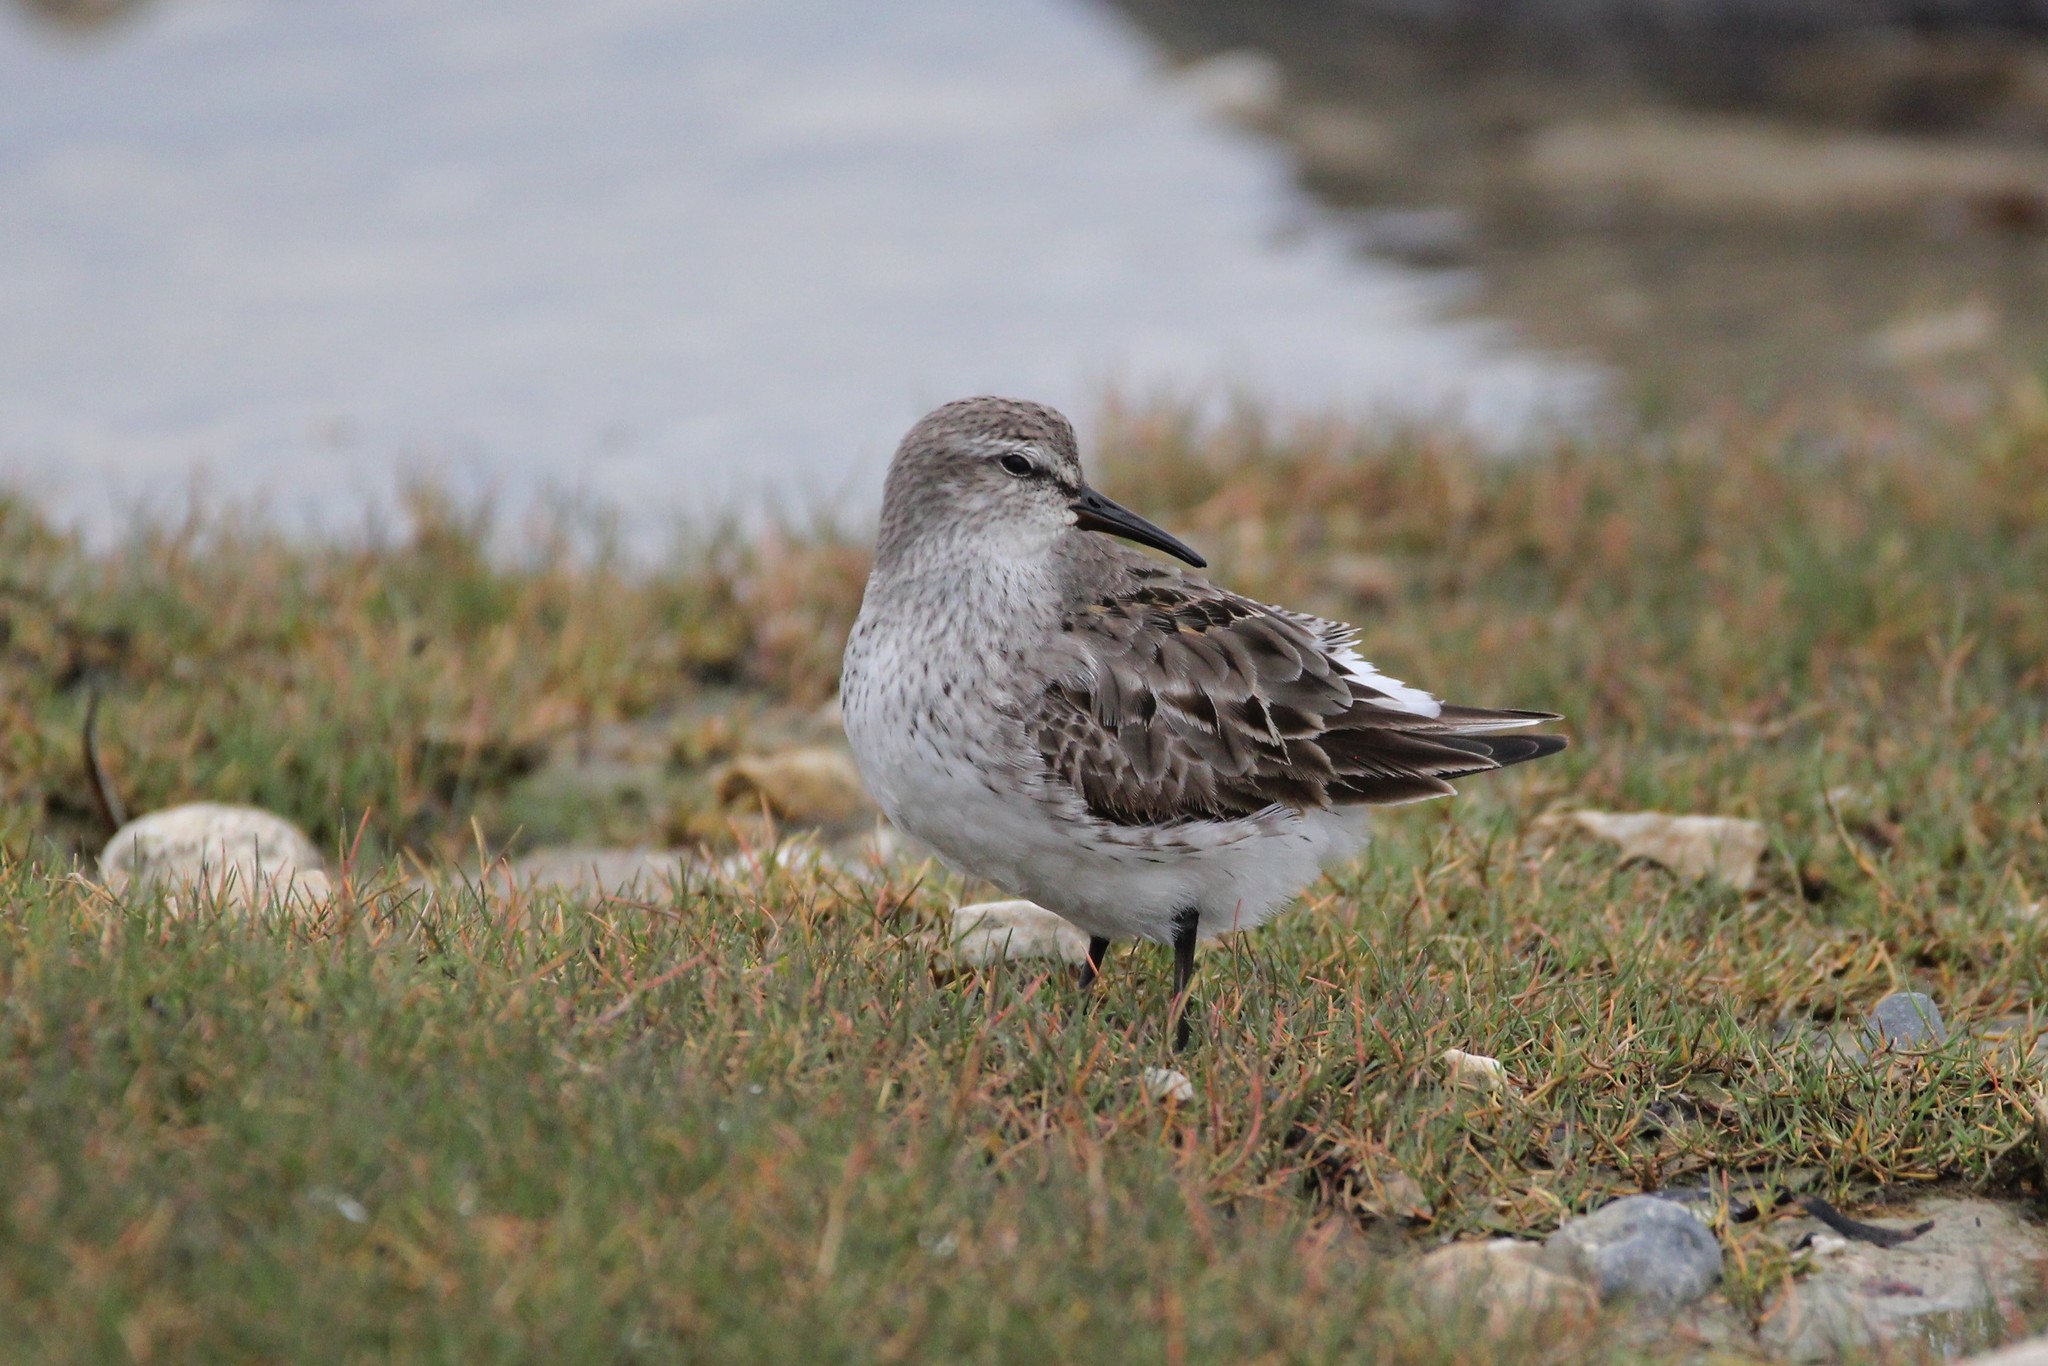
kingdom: Animalia
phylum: Chordata
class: Aves
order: Charadriiformes
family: Scolopacidae
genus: Calidris
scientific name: Calidris fuscicollis
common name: White-rumped sandpiper
